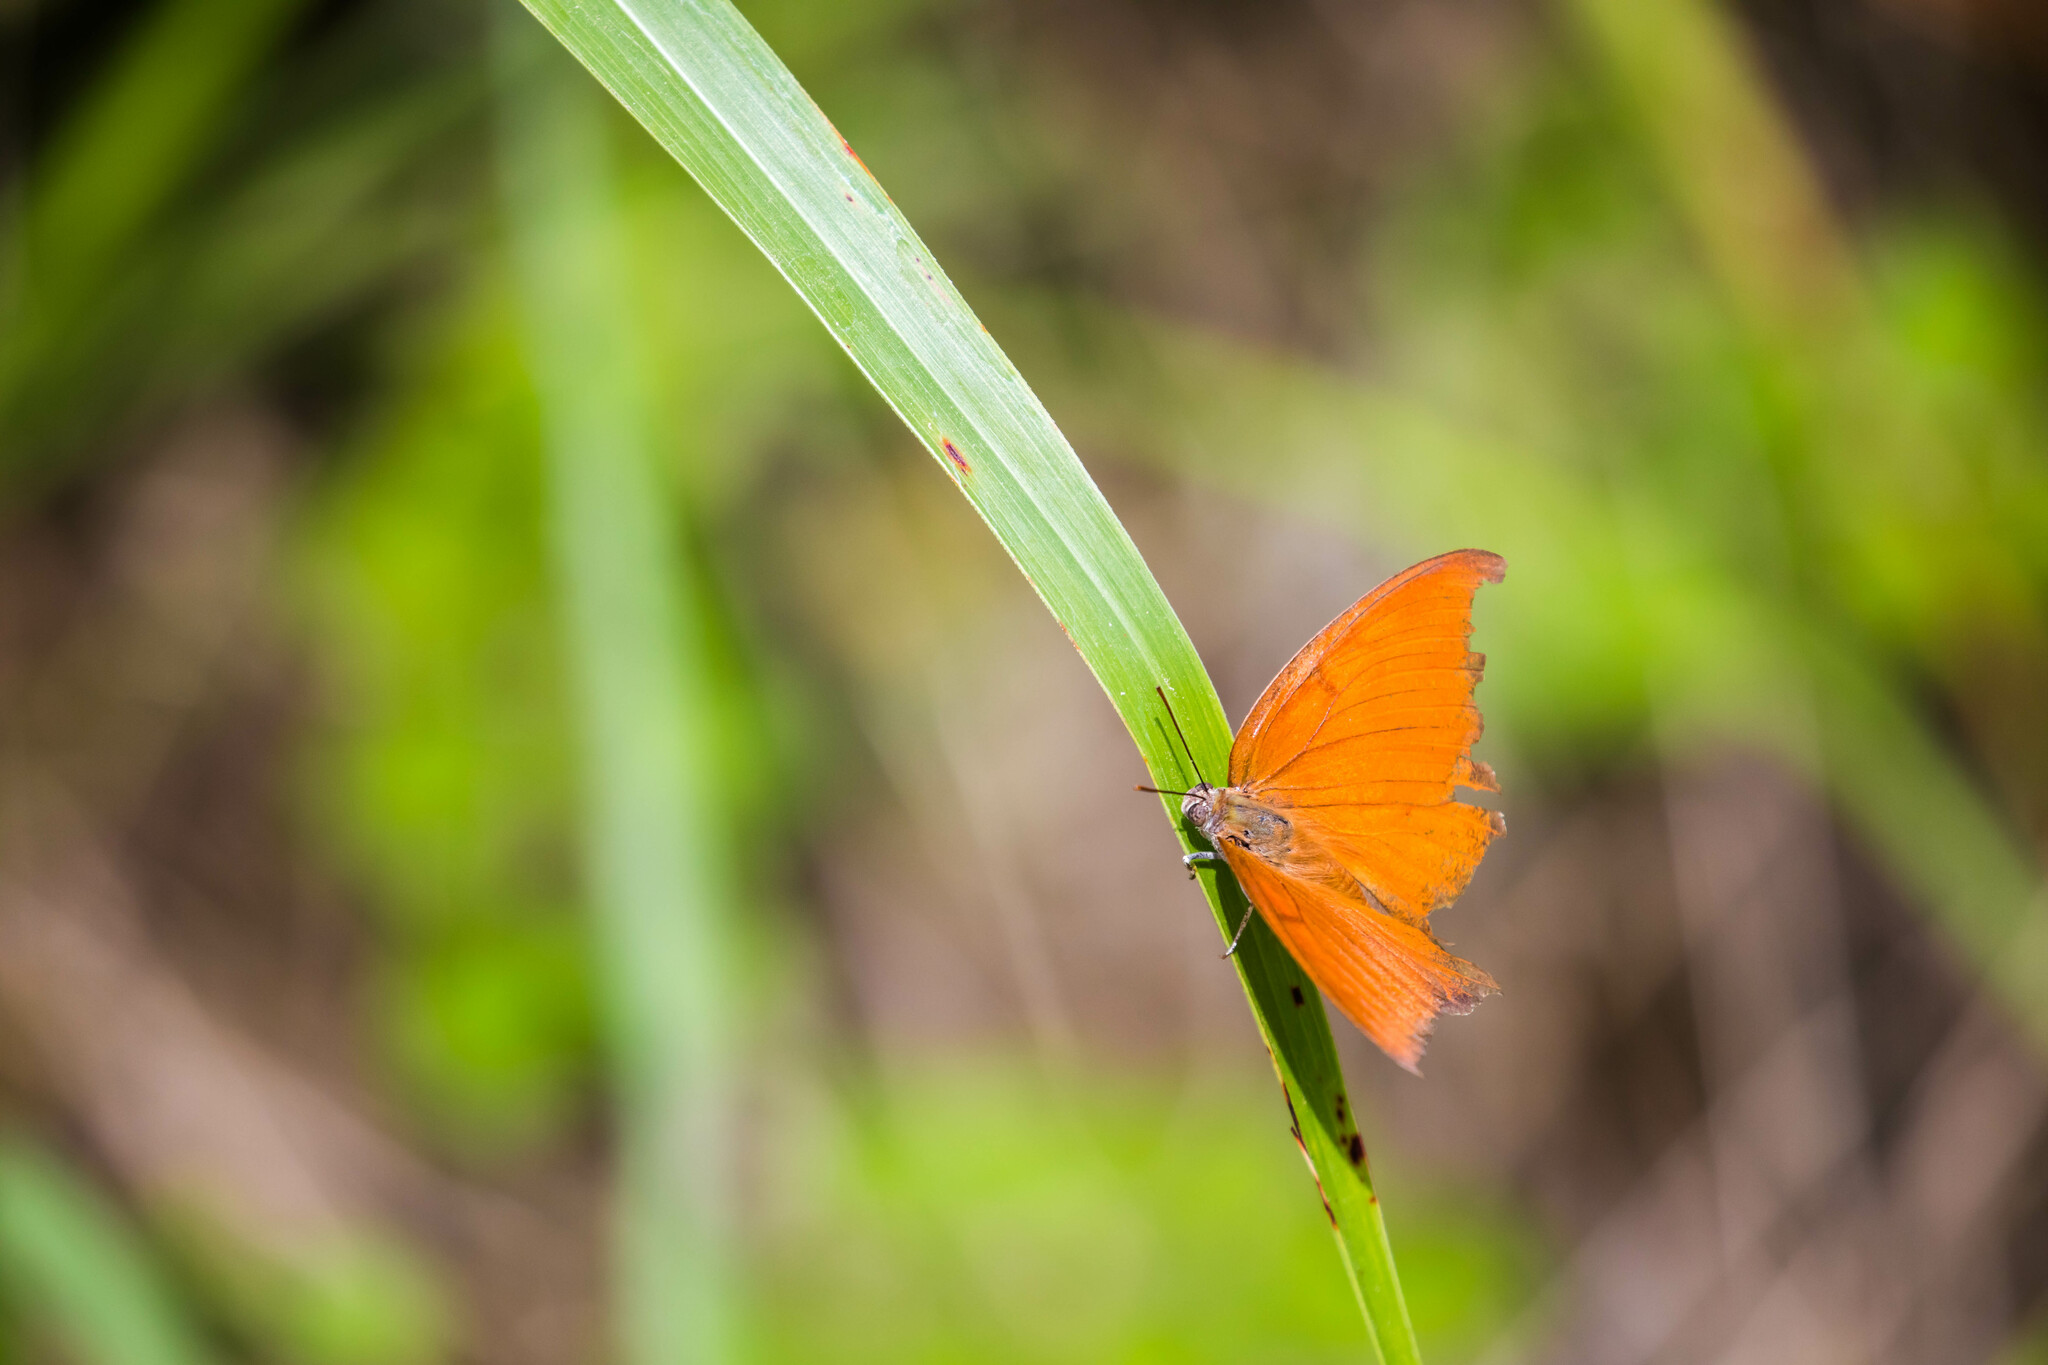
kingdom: Animalia
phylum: Arthropoda
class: Insecta
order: Lepidoptera
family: Nymphalidae
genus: Anaea
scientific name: Anaea andria
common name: Goatweed leafwing
